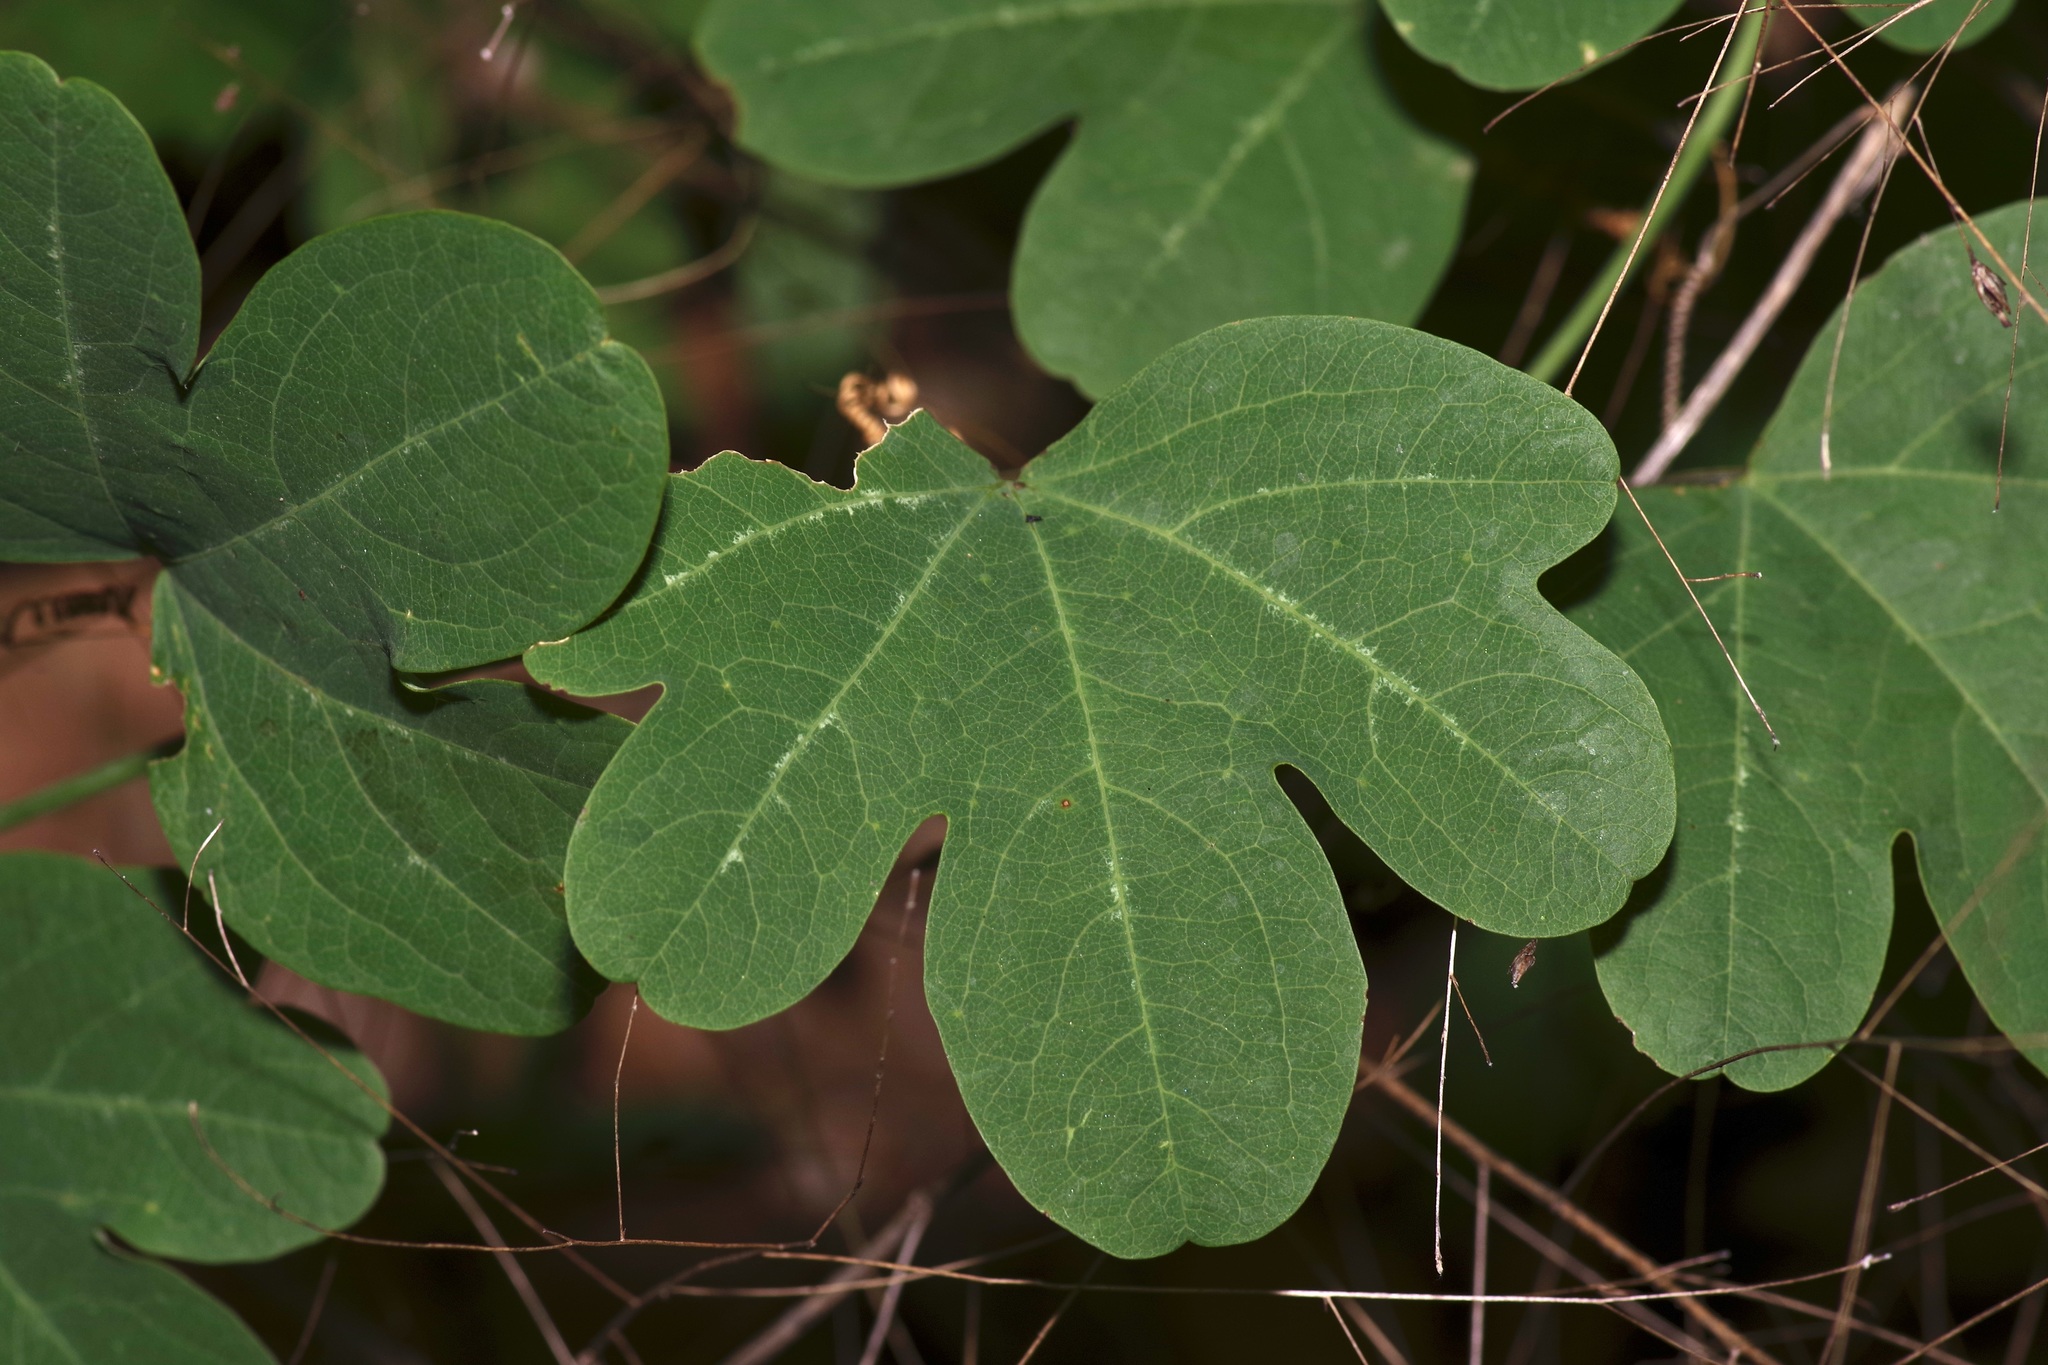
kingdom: Plantae
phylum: Tracheophyta
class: Magnoliopsida
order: Malpighiales
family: Passifloraceae
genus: Passiflora
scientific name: Passiflora affinis
